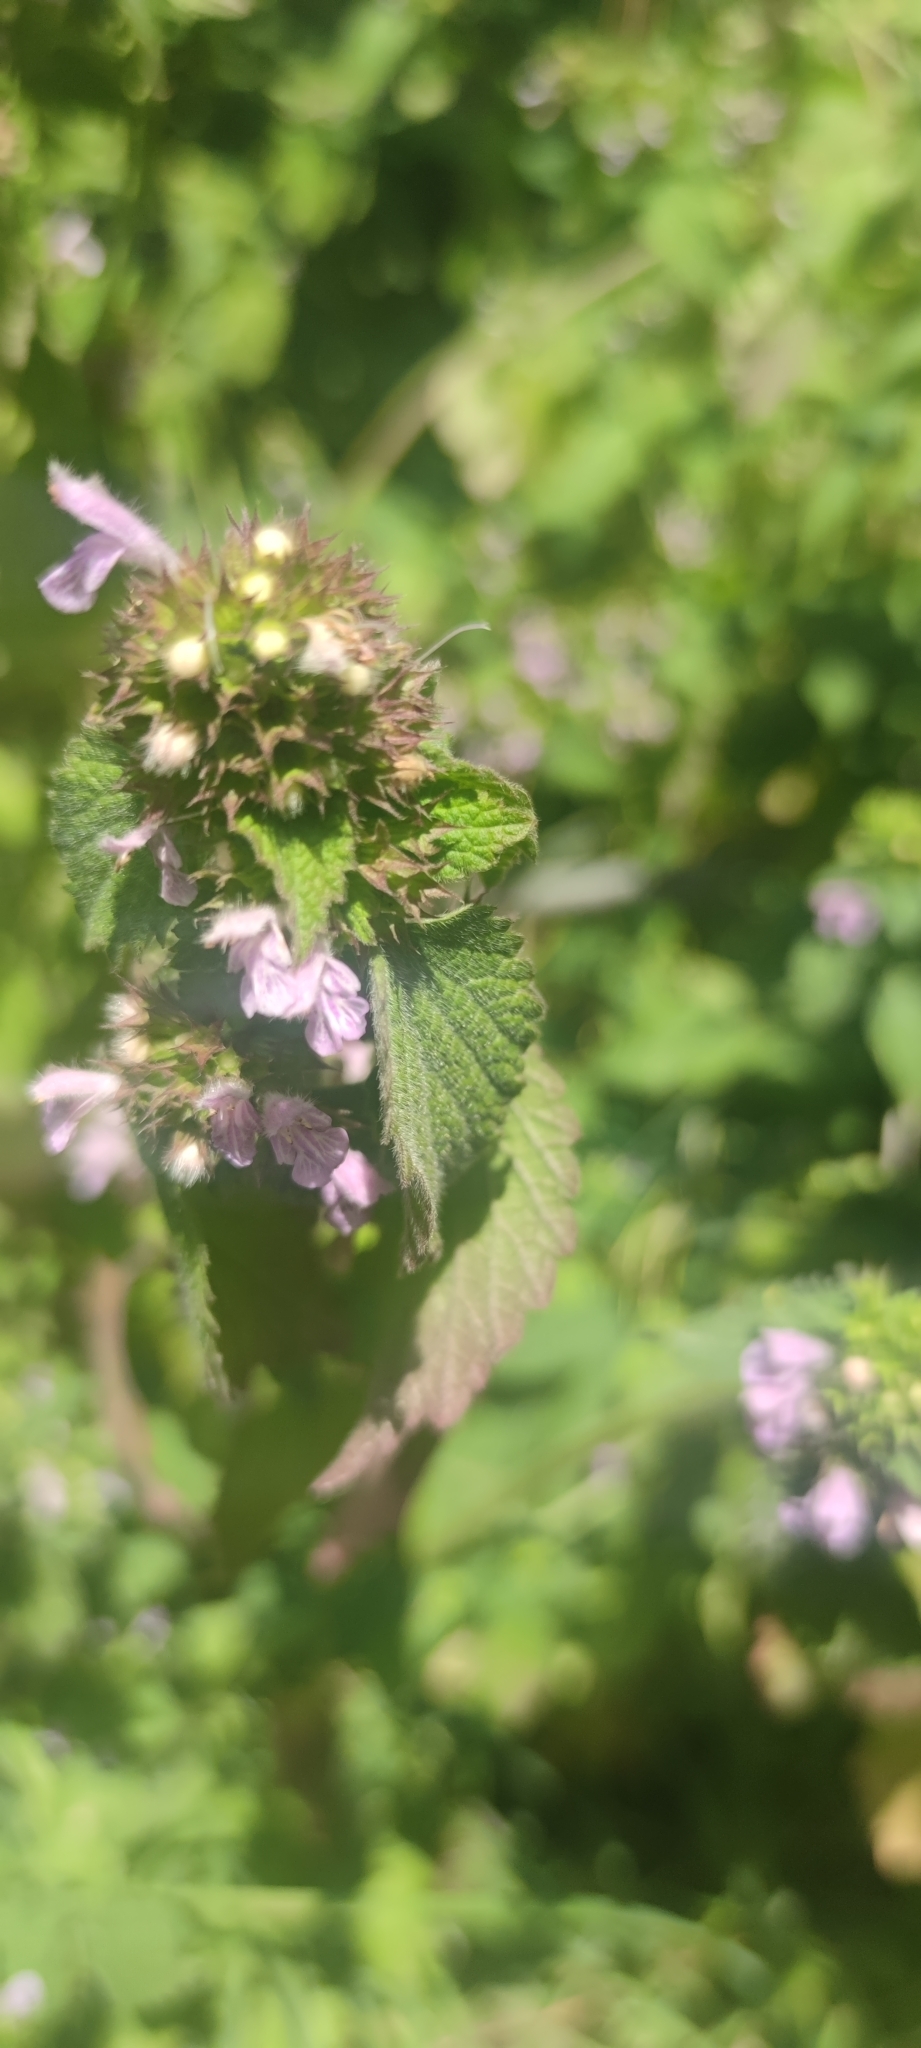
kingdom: Plantae
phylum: Tracheophyta
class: Magnoliopsida
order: Lamiales
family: Lamiaceae
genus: Ballota
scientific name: Ballota nigra
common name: Black horehound
